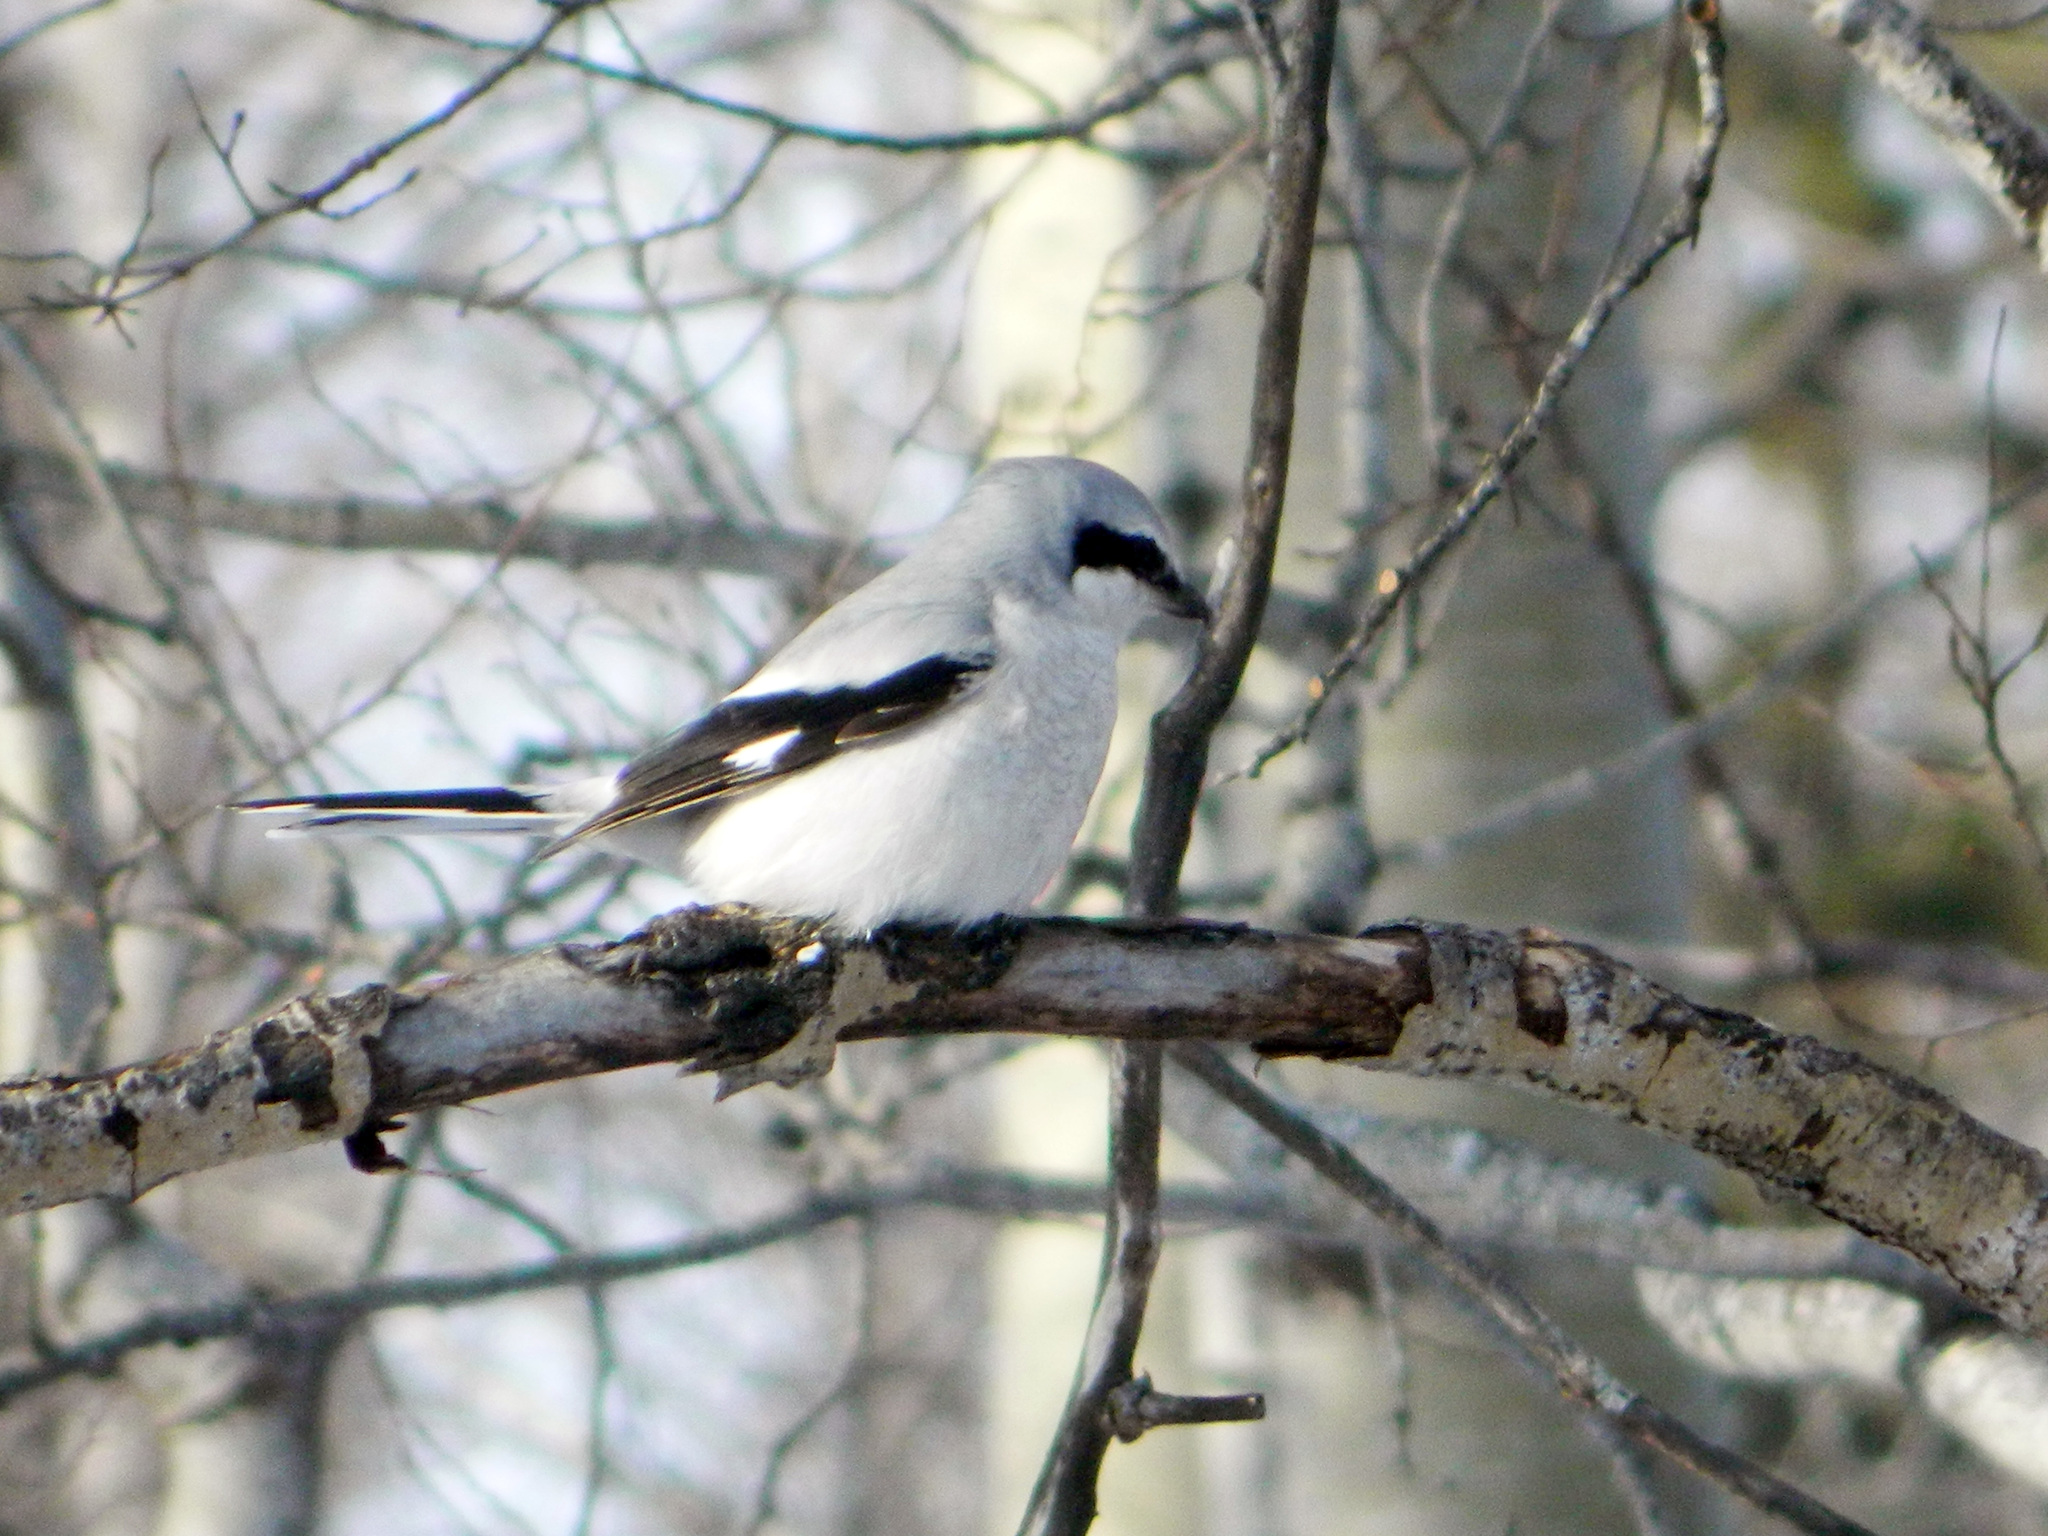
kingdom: Animalia
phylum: Chordata
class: Aves
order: Passeriformes
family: Laniidae
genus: Lanius
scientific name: Lanius borealis
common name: Northern shrike
